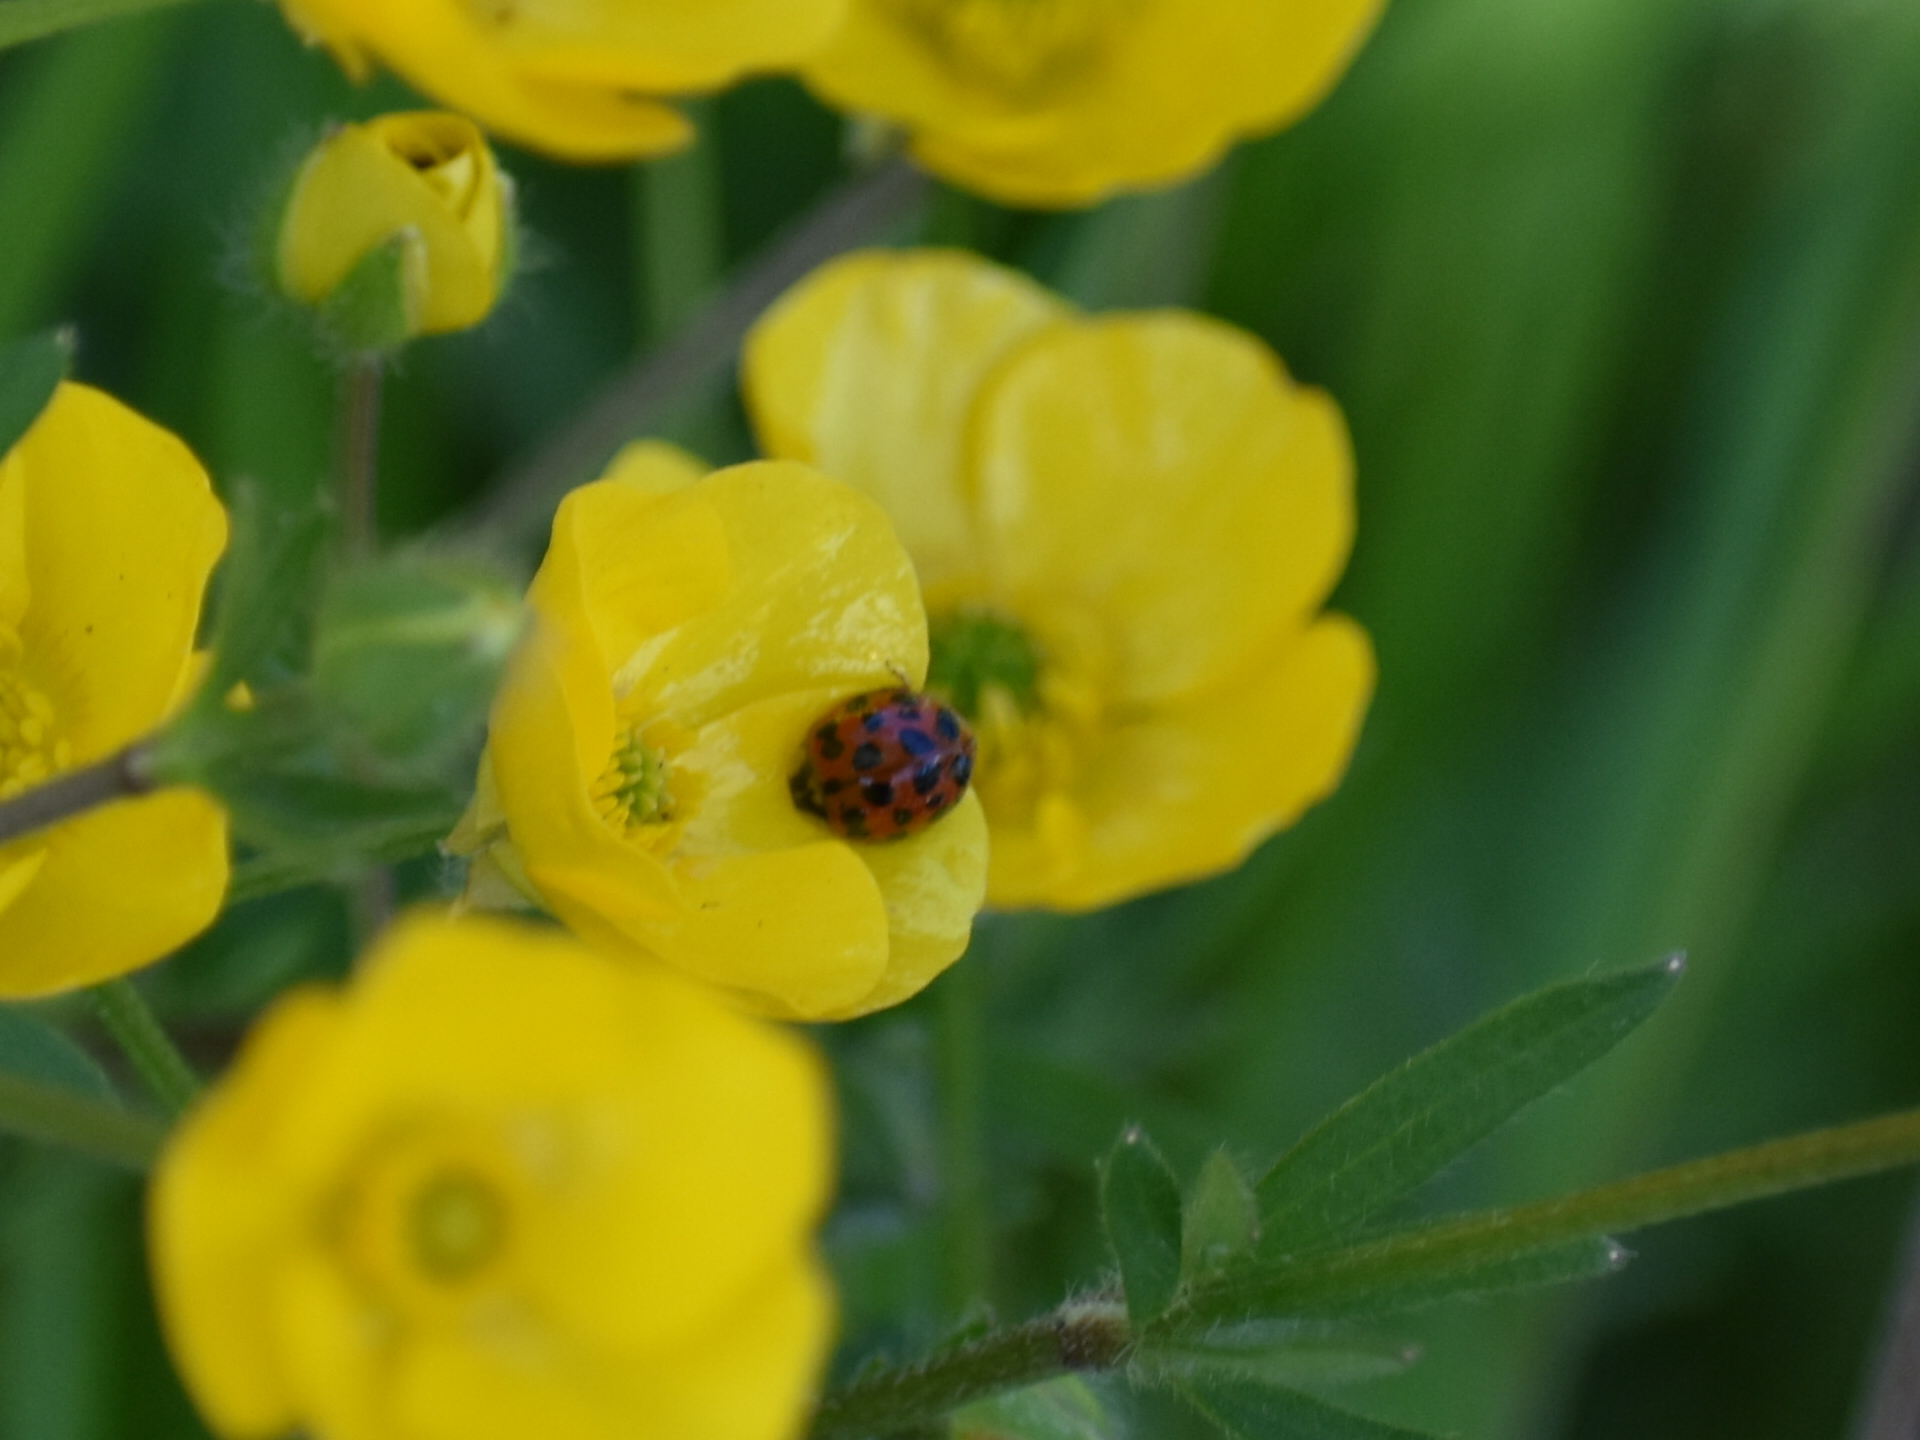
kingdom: Animalia
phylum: Arthropoda
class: Insecta
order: Coleoptera
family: Coccinellidae
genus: Harmonia
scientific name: Harmonia axyridis
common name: Harlequin ladybird
